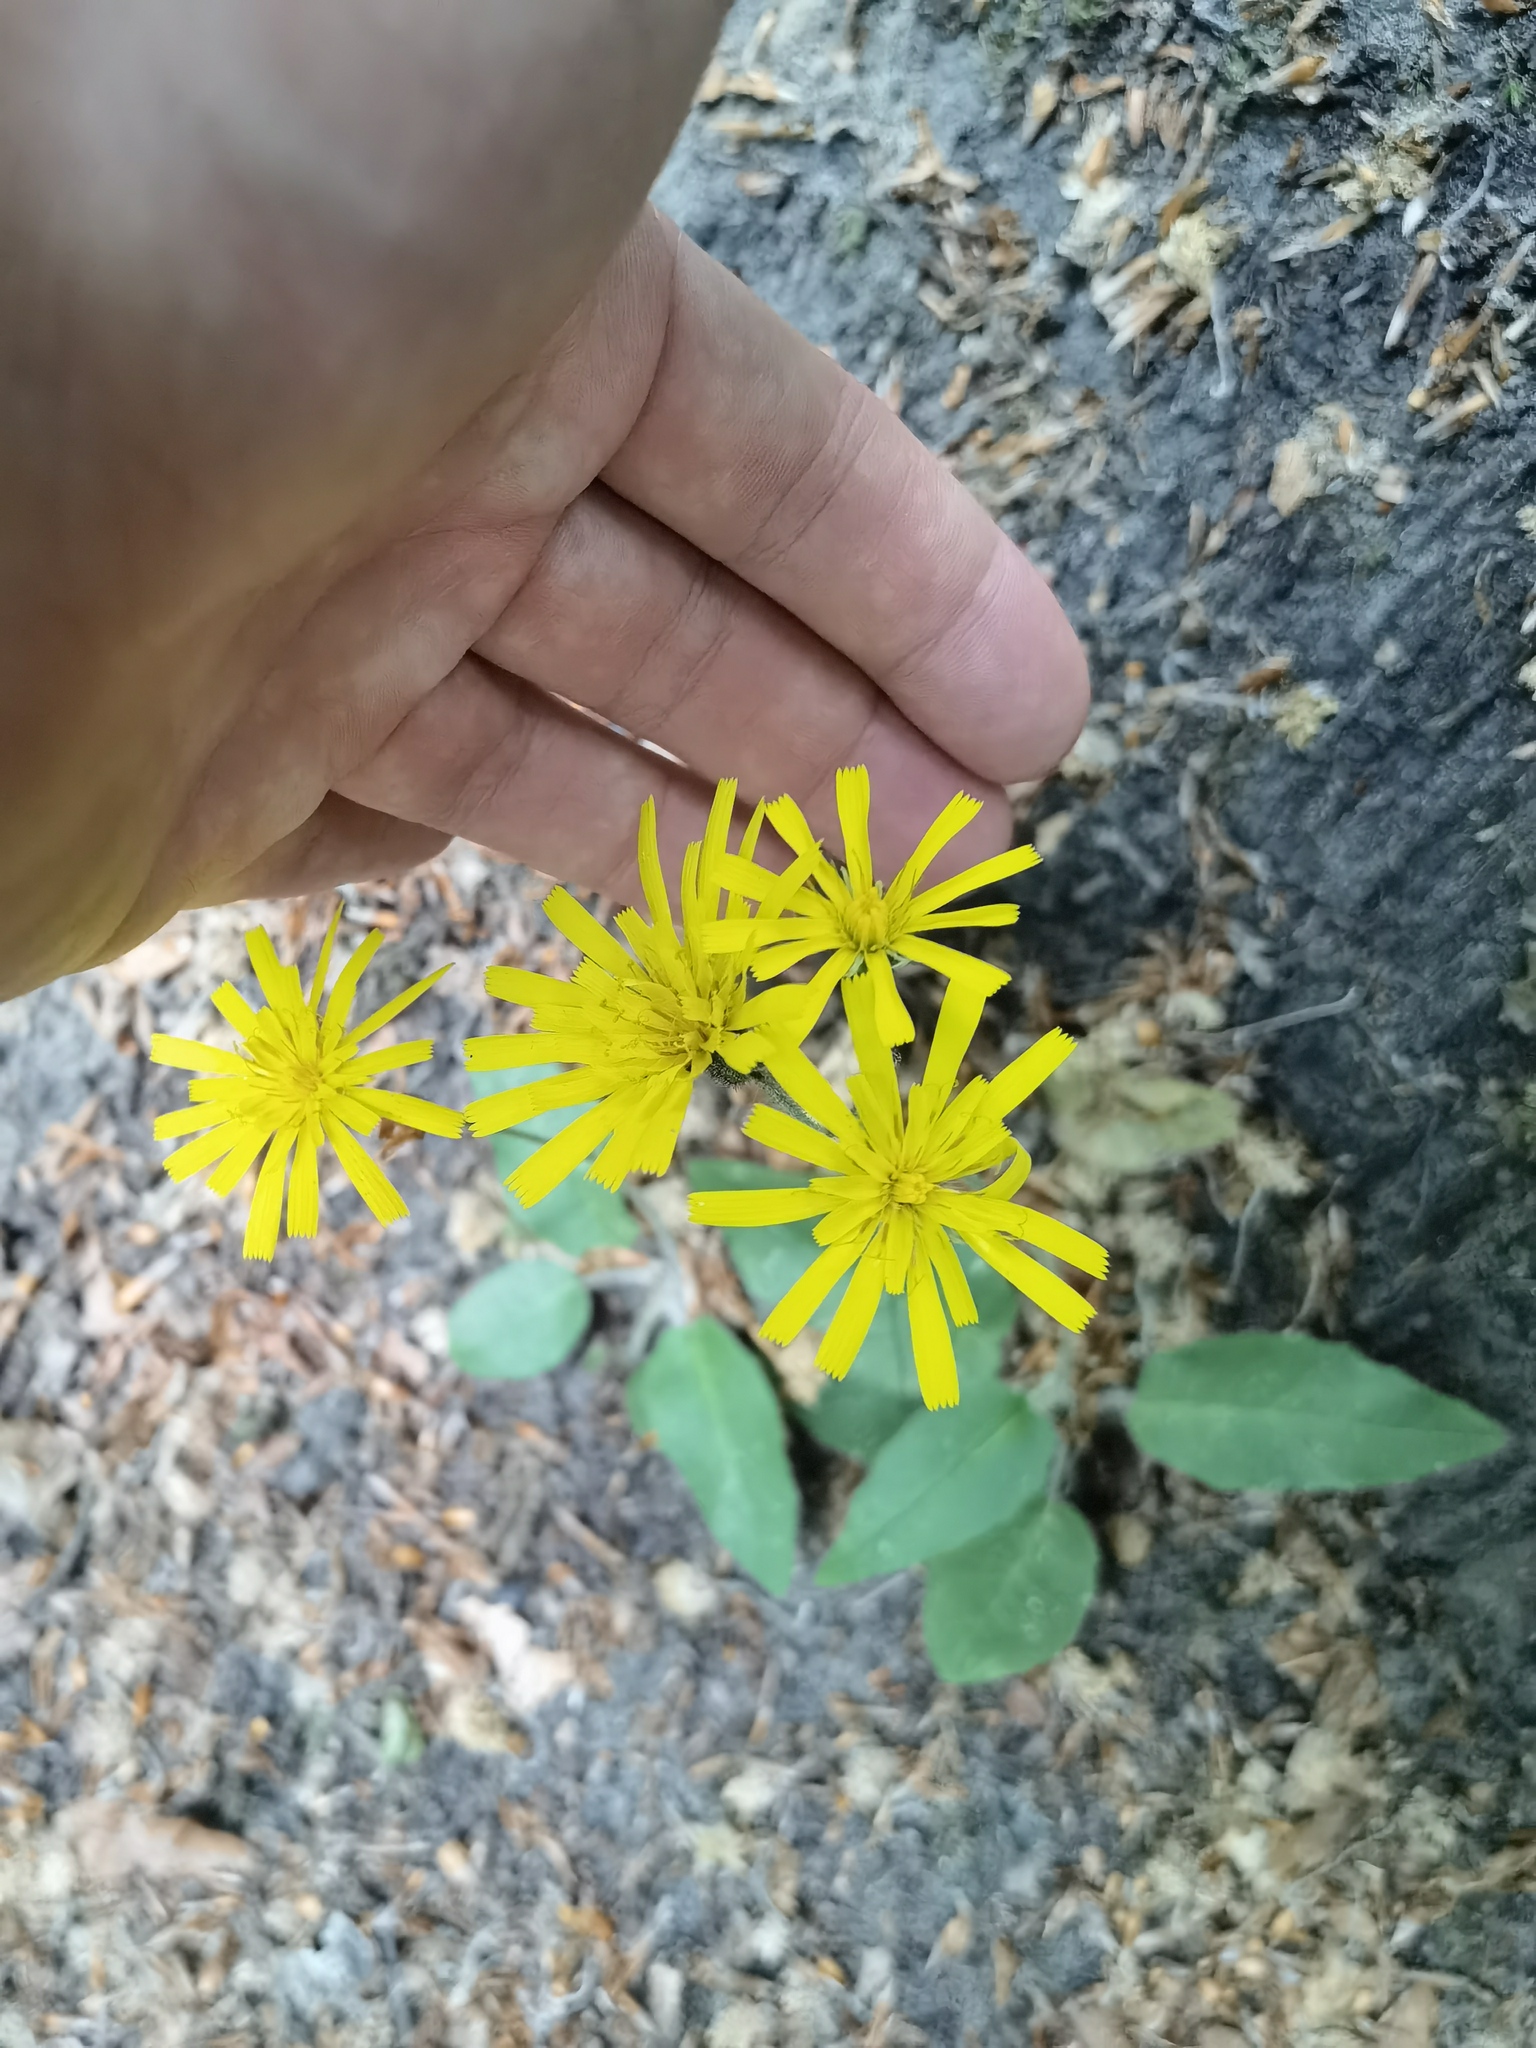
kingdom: Plantae
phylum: Tracheophyta
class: Magnoliopsida
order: Asterales
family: Asteraceae
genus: Hieracium
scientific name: Hieracium murorum
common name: Wall hawkweed
